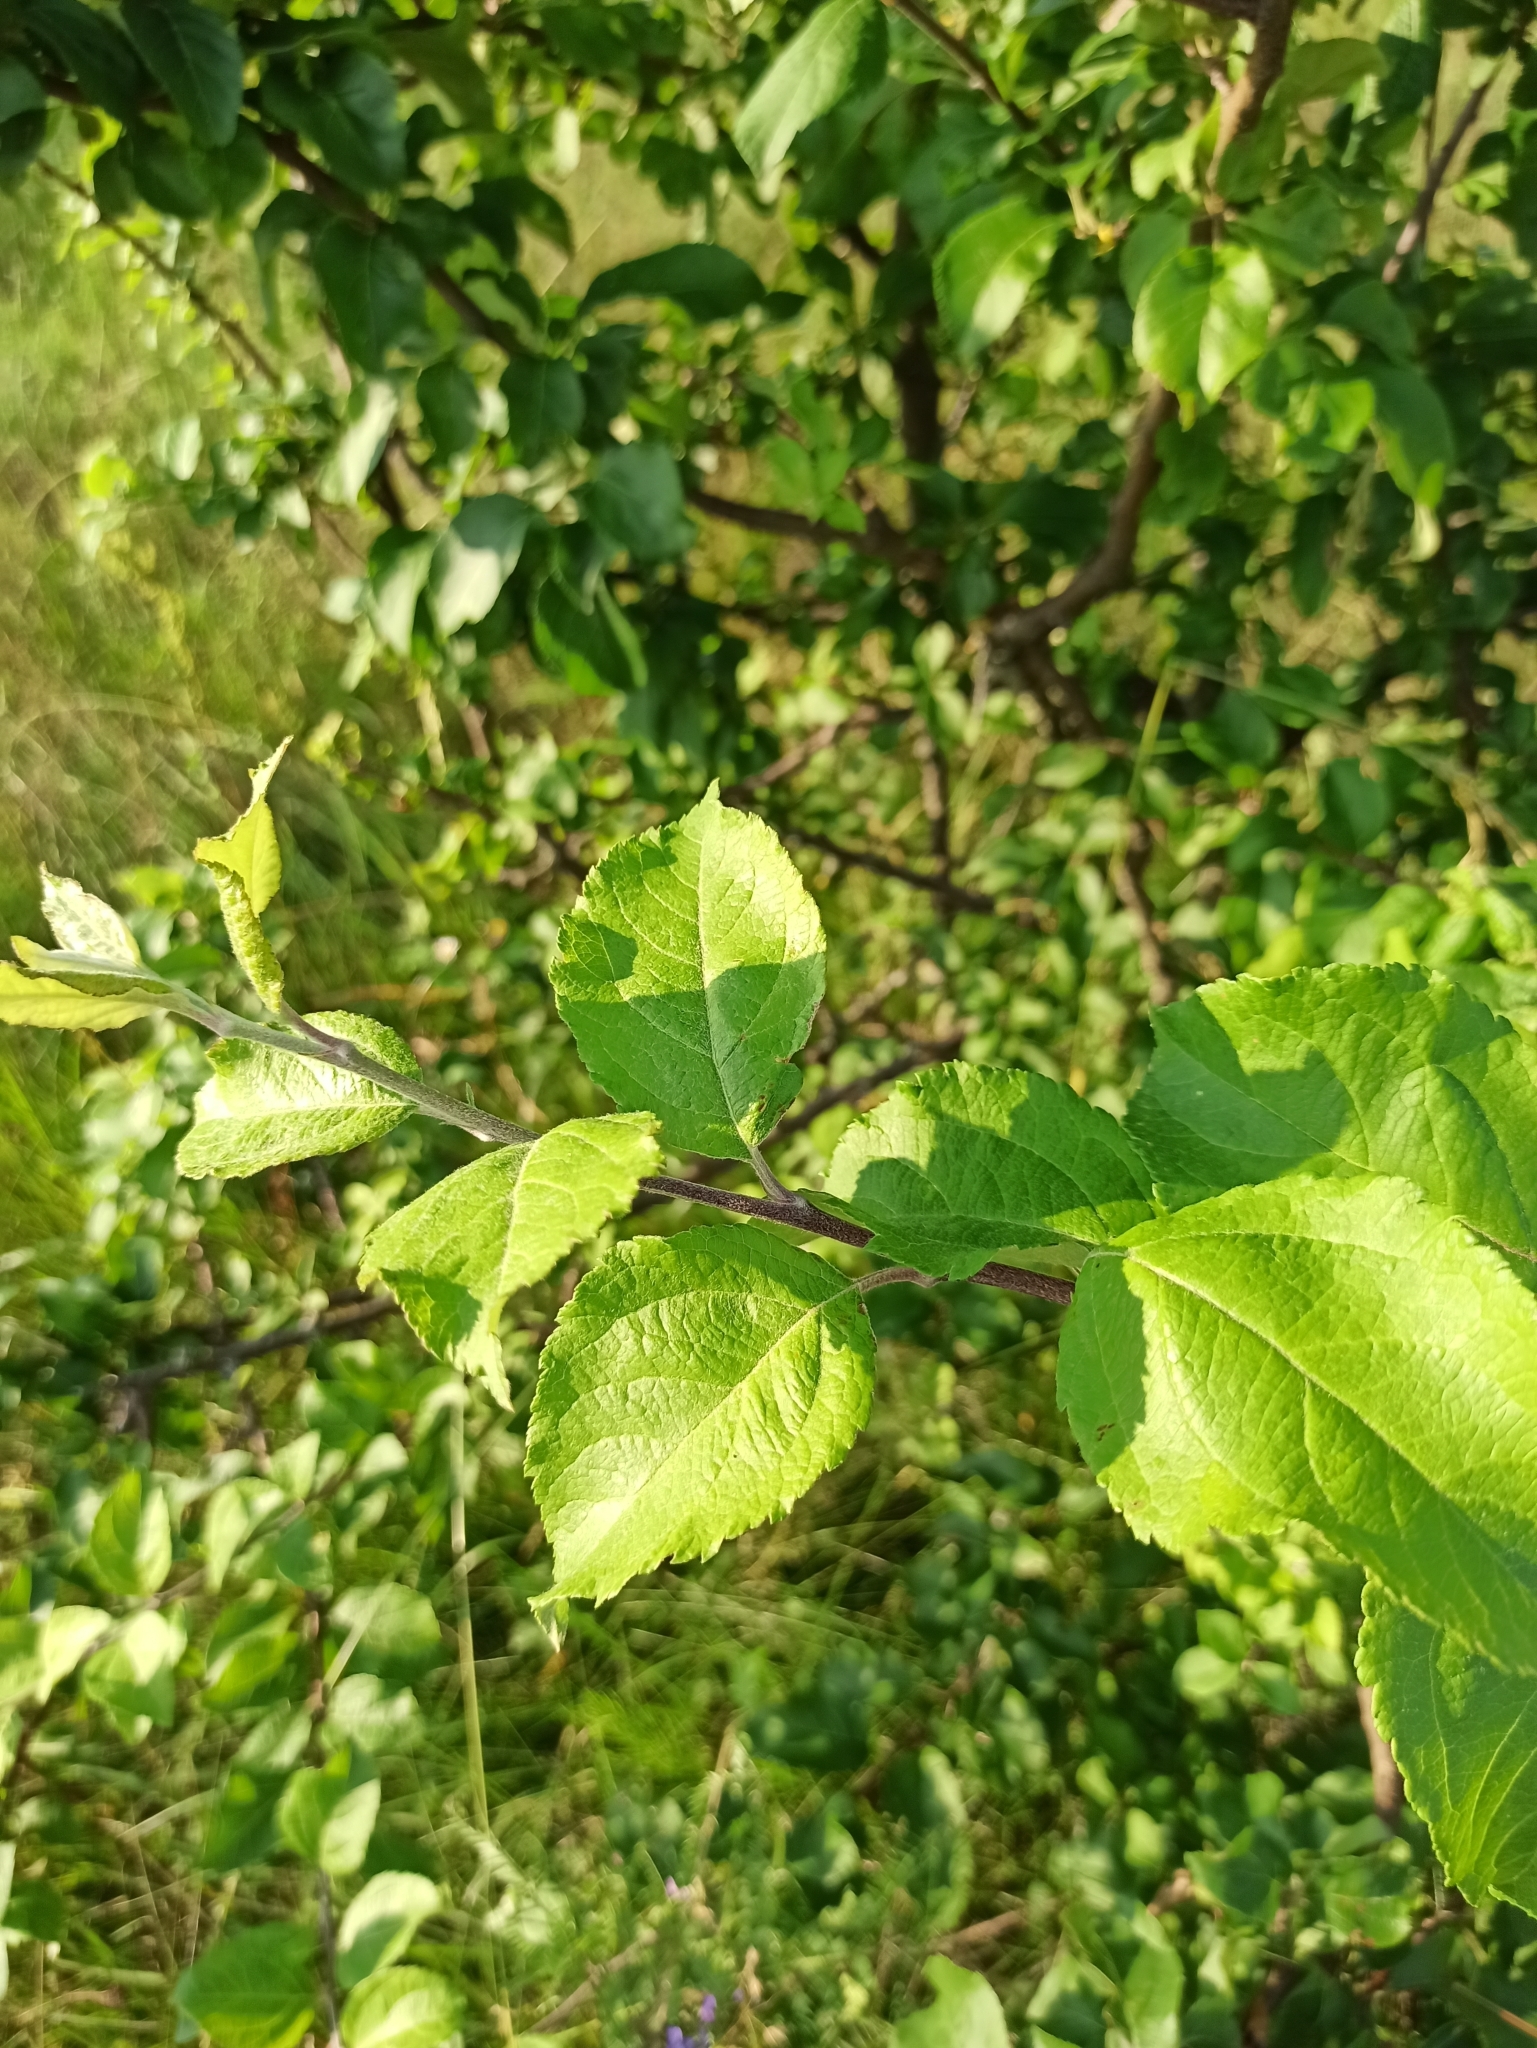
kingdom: Plantae
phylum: Tracheophyta
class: Magnoliopsida
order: Rosales
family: Rosaceae
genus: Malus
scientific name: Malus domestica
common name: Apple
